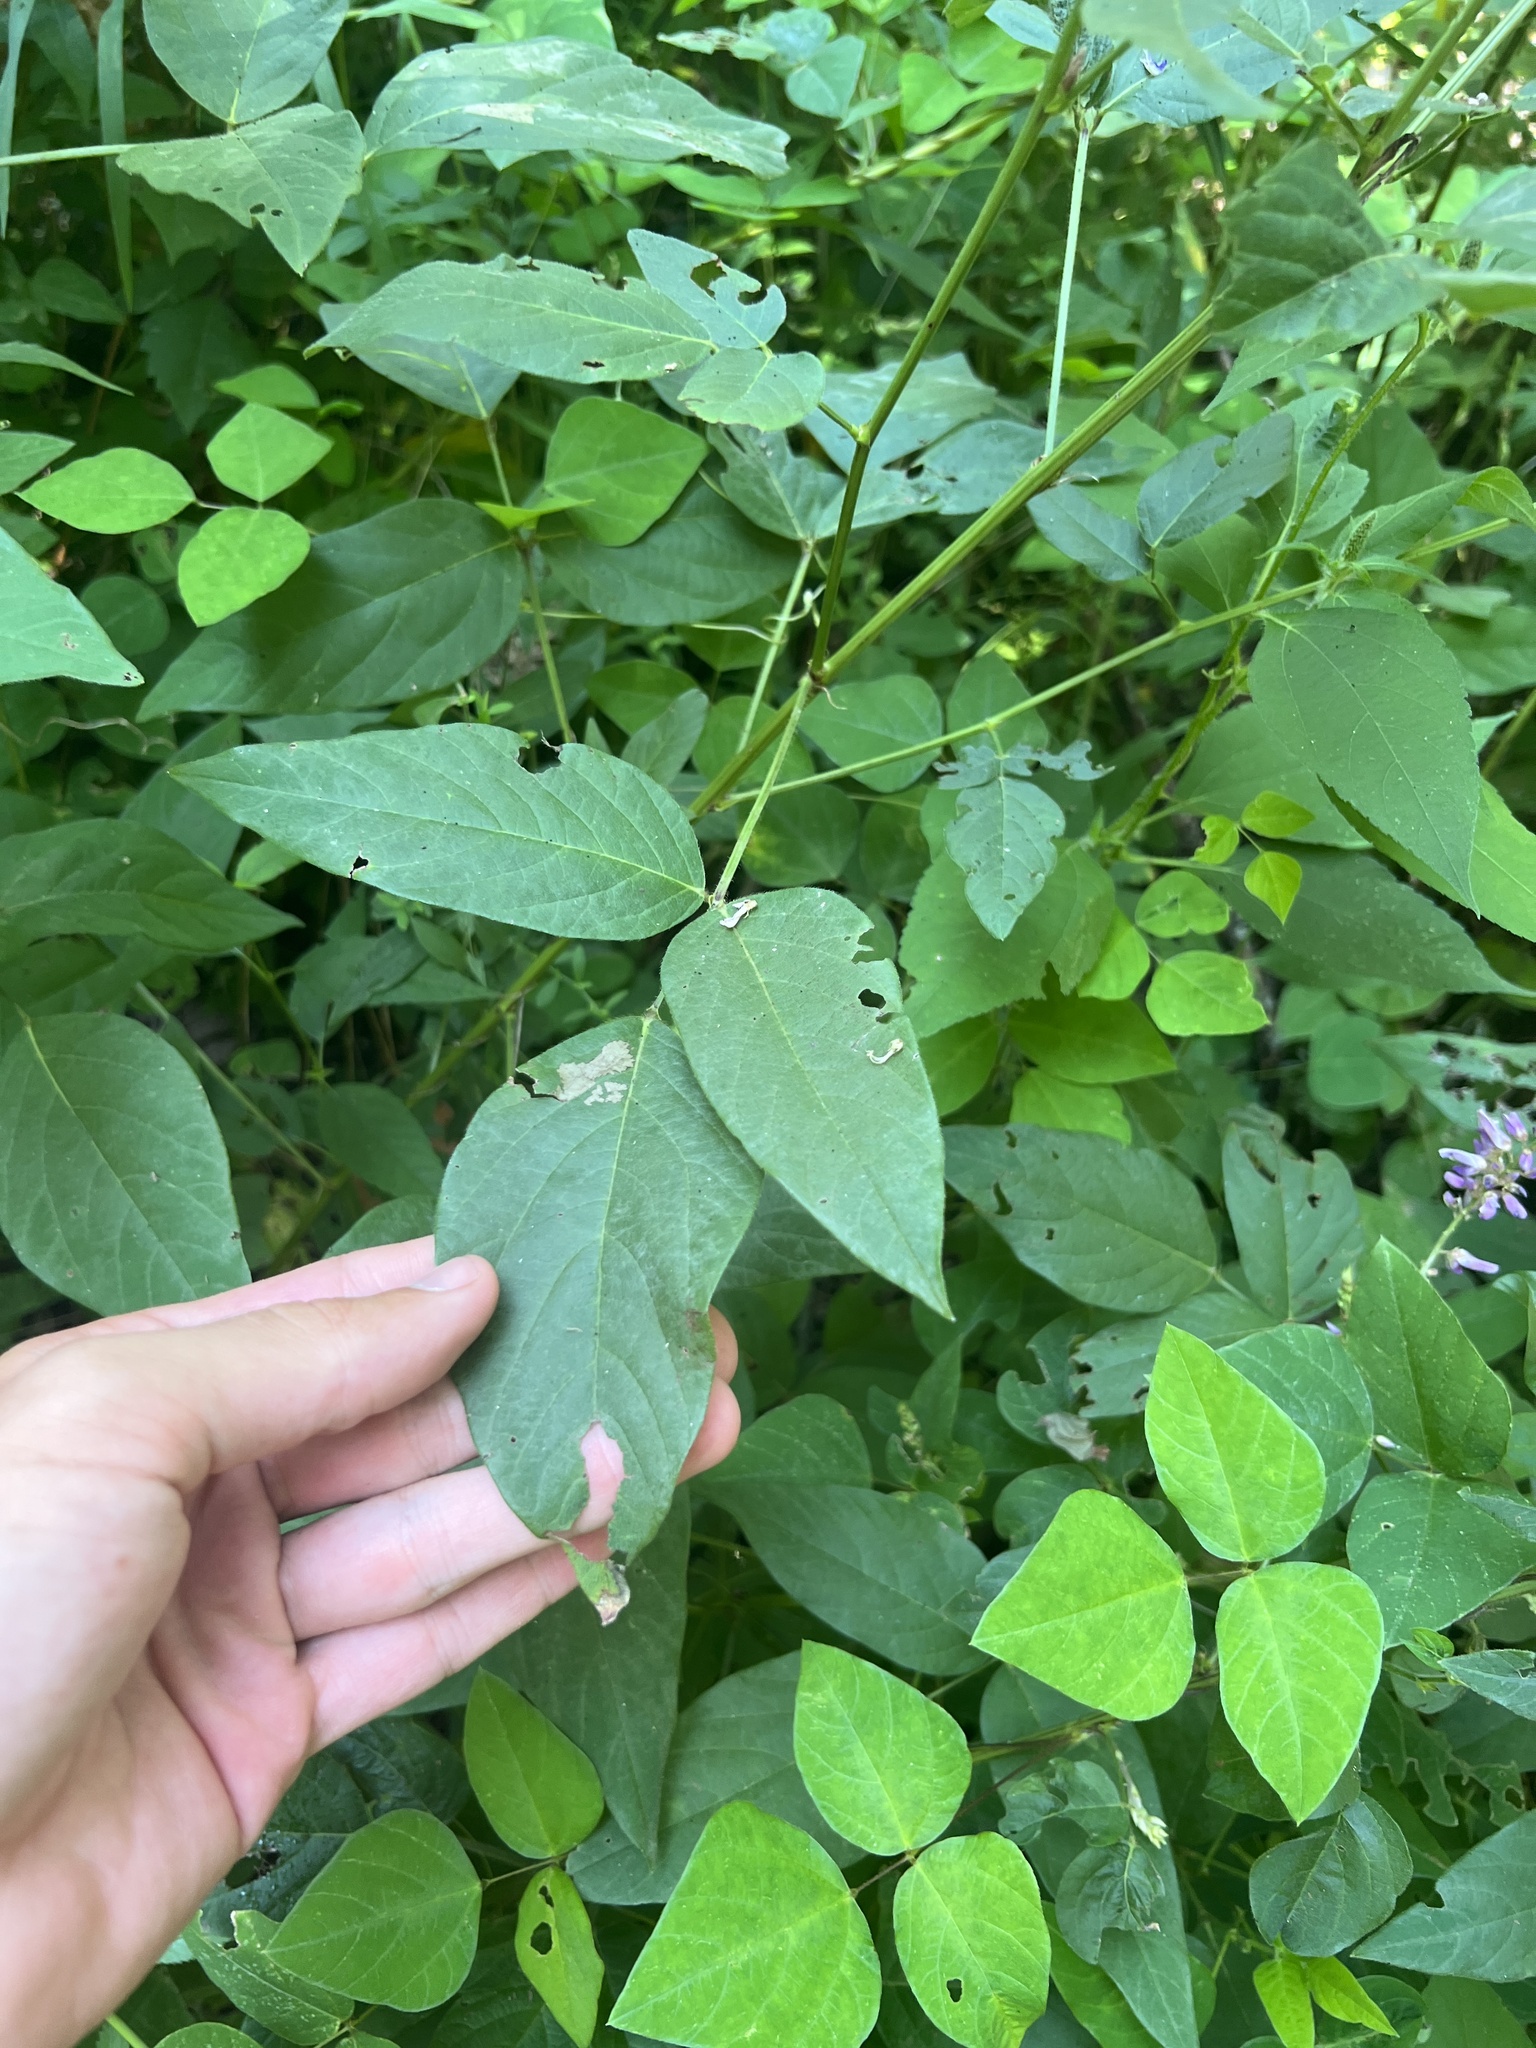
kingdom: Plantae
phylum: Tracheophyta
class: Magnoliopsida
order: Fabales
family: Fabaceae
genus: Desmodium
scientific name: Desmodium cuspidatum
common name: Big tick trefoil
